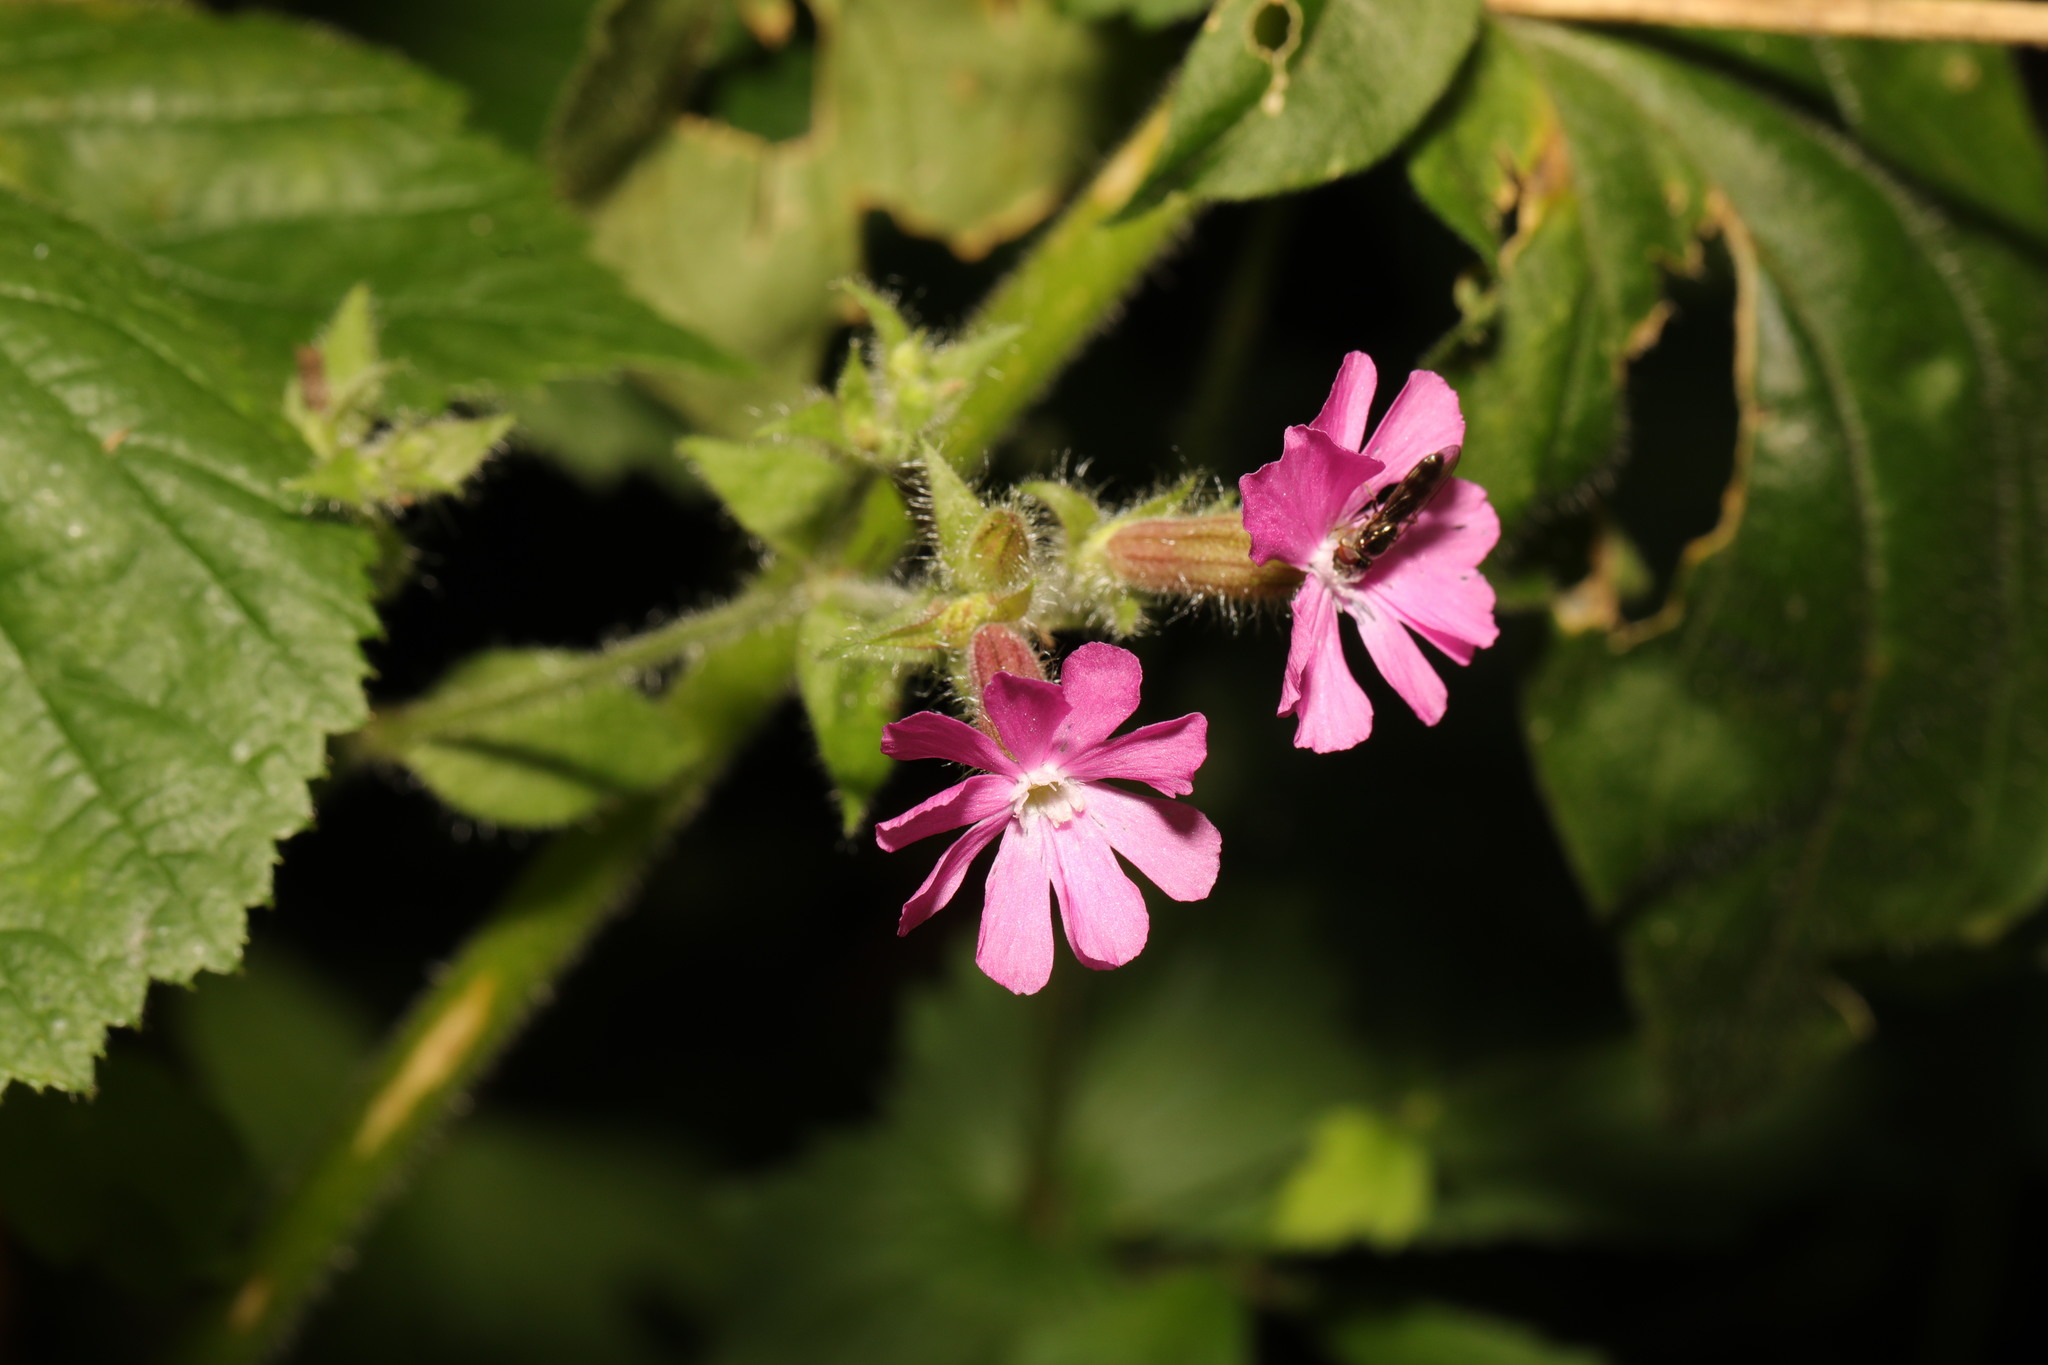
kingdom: Plantae
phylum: Tracheophyta
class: Magnoliopsida
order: Caryophyllales
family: Caryophyllaceae
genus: Silene
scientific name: Silene dioica
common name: Red campion
